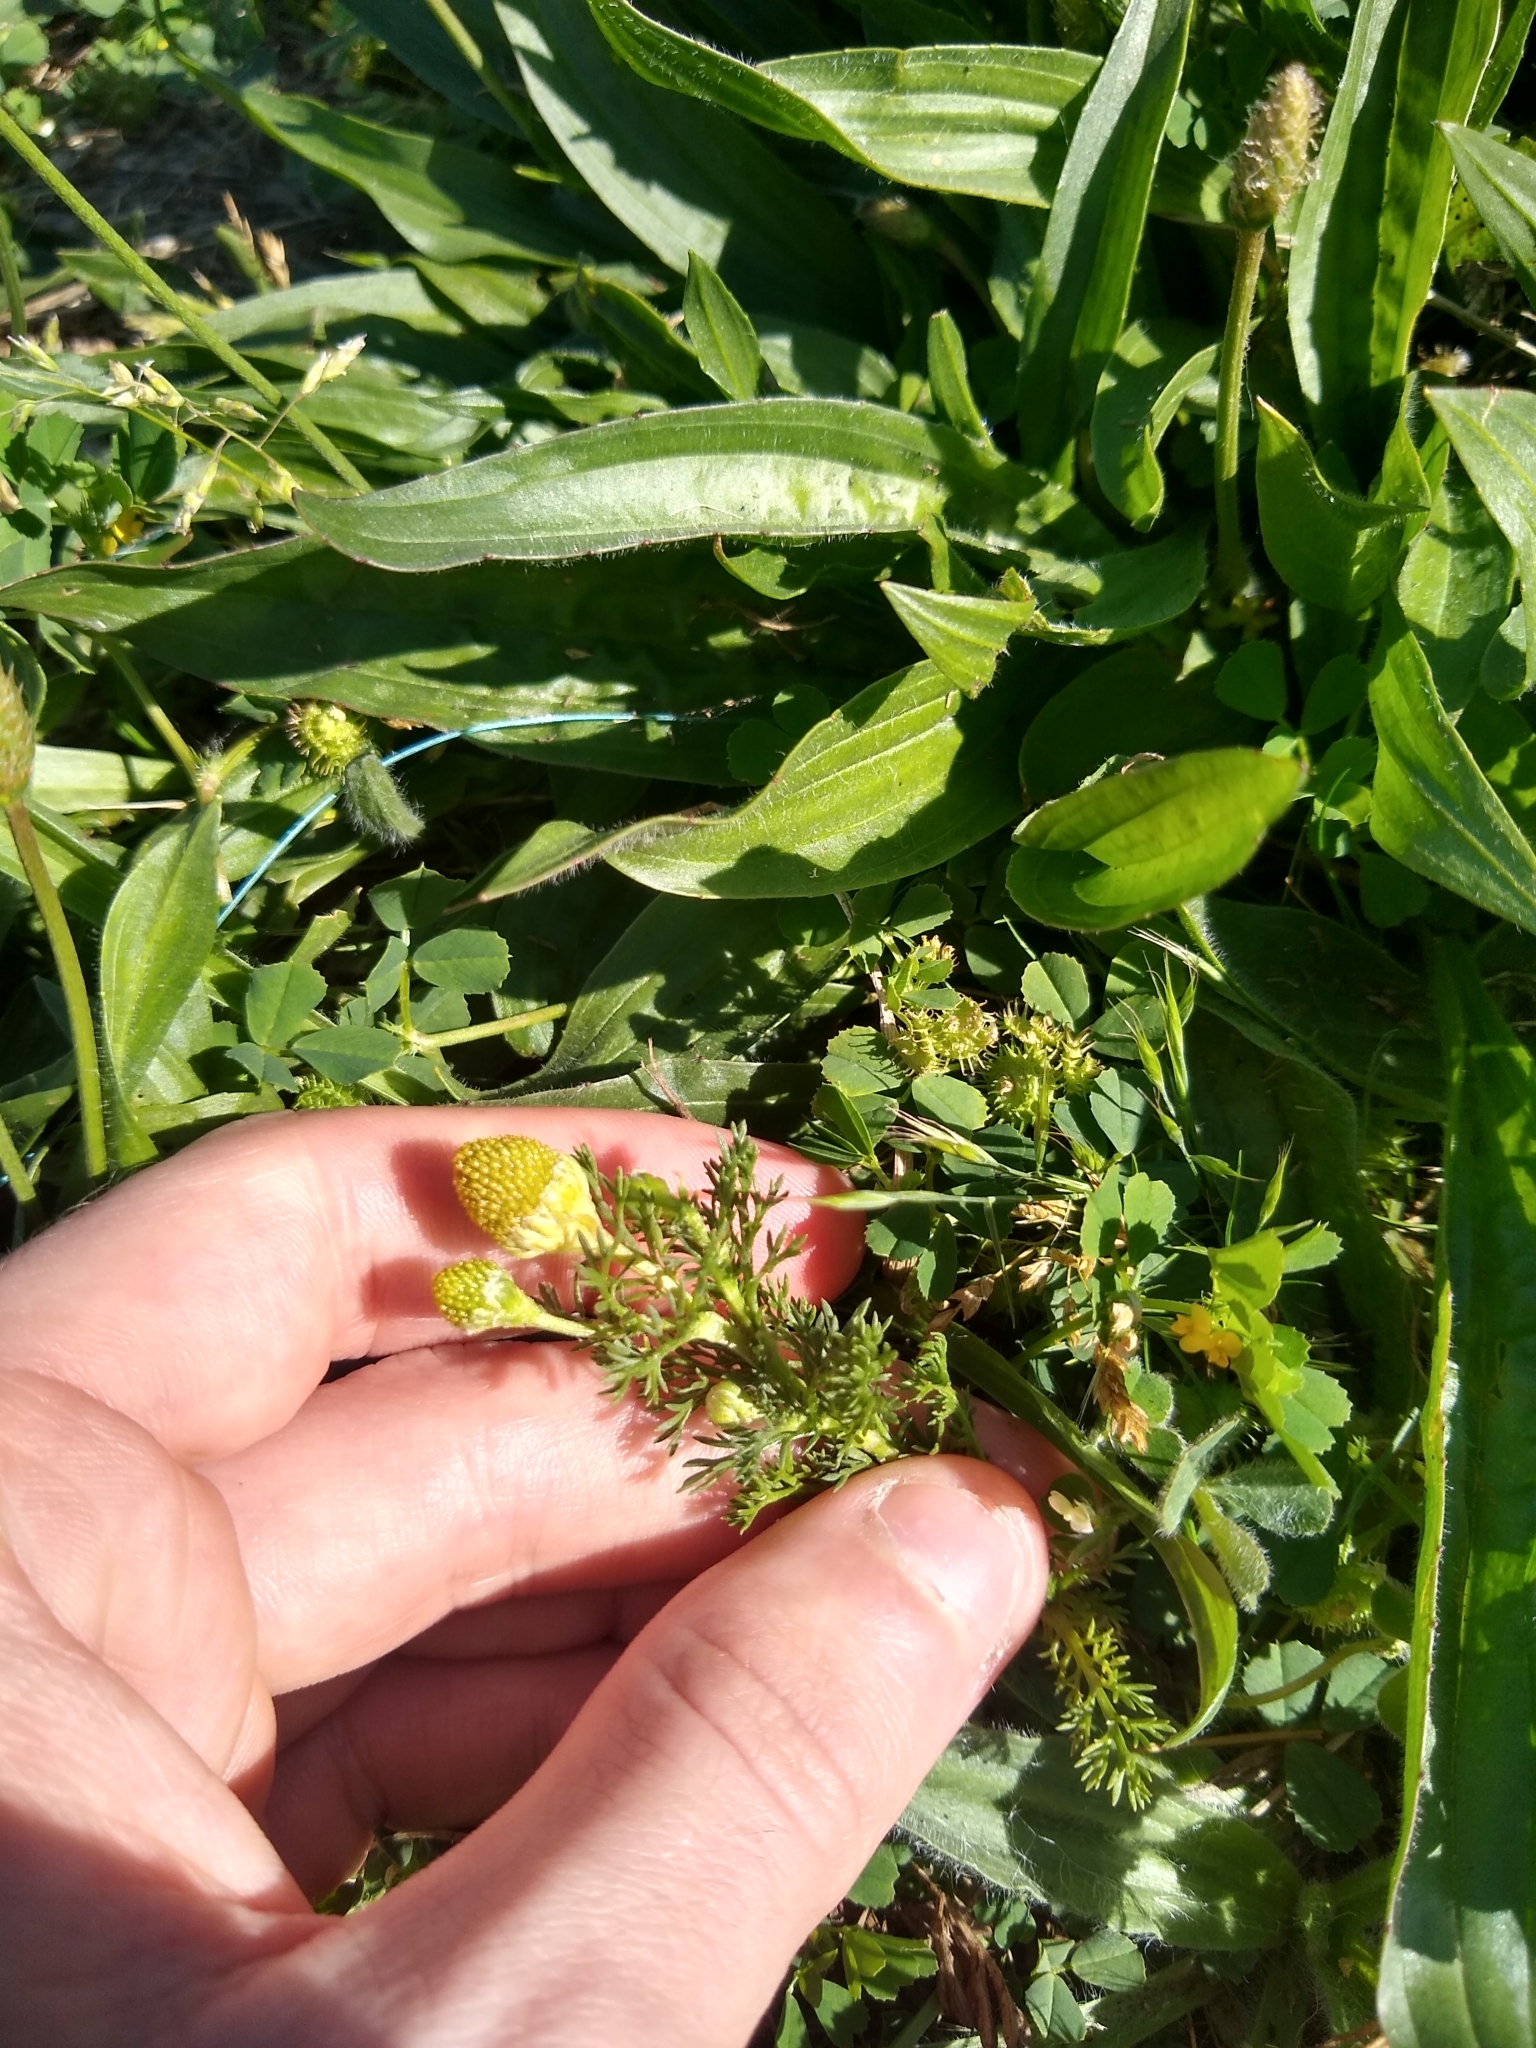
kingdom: Plantae
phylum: Tracheophyta
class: Magnoliopsida
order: Asterales
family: Asteraceae
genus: Matricaria
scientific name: Matricaria discoidea
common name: Disc mayweed
